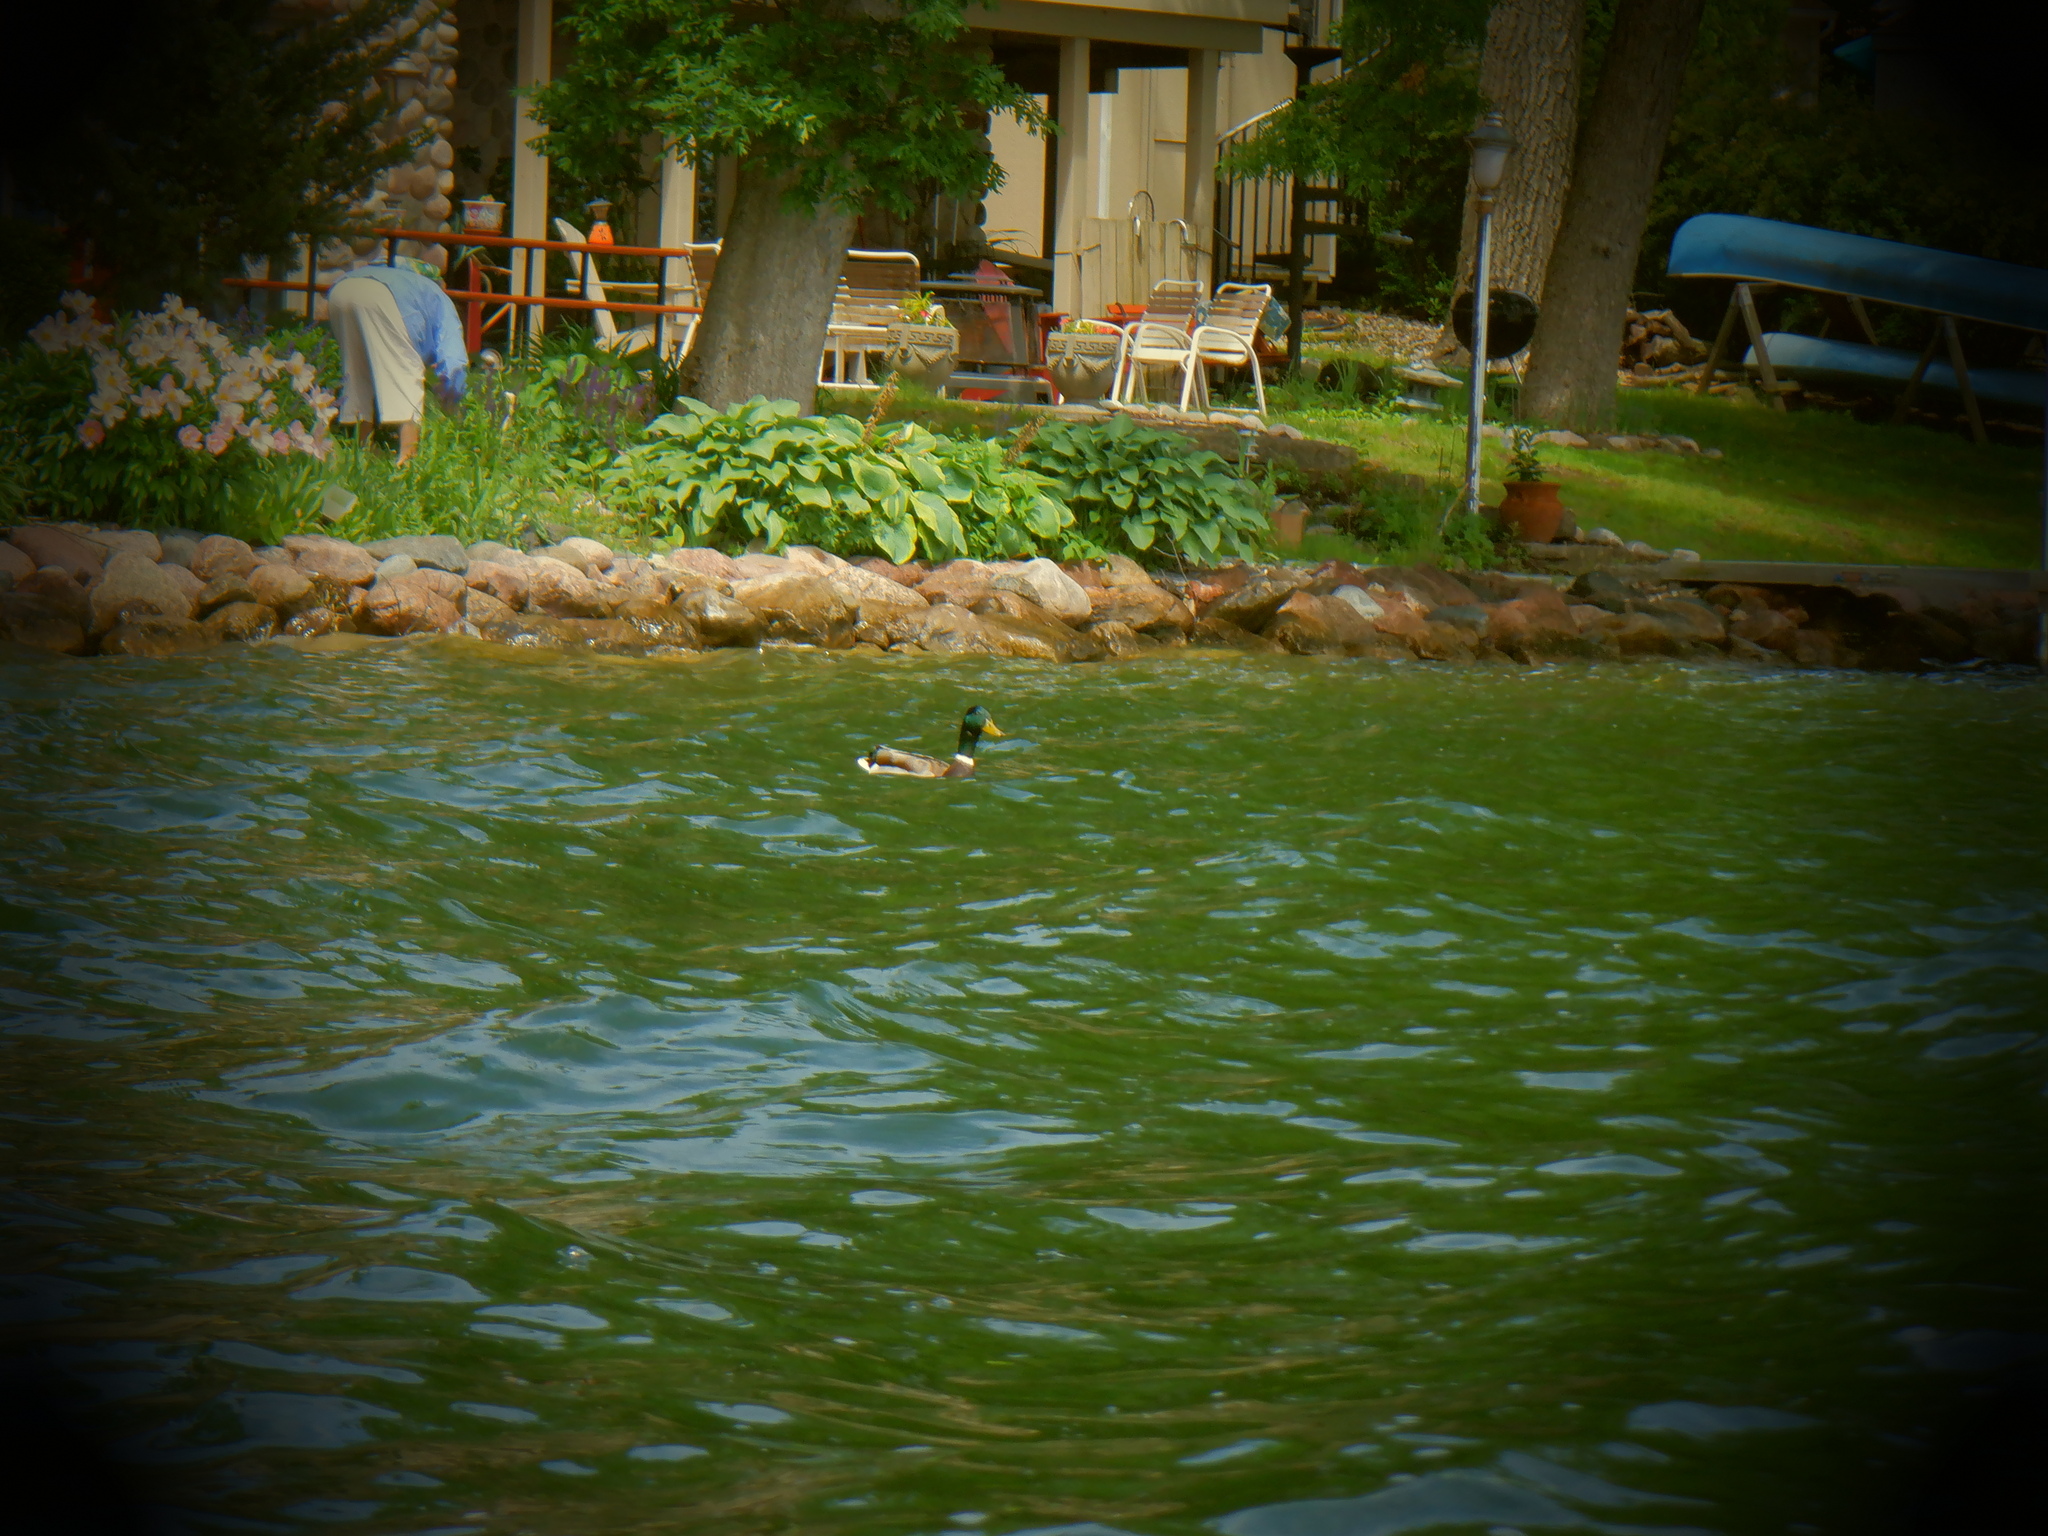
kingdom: Animalia
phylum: Chordata
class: Aves
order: Anseriformes
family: Anatidae
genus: Anas
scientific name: Anas platyrhynchos
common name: Mallard
